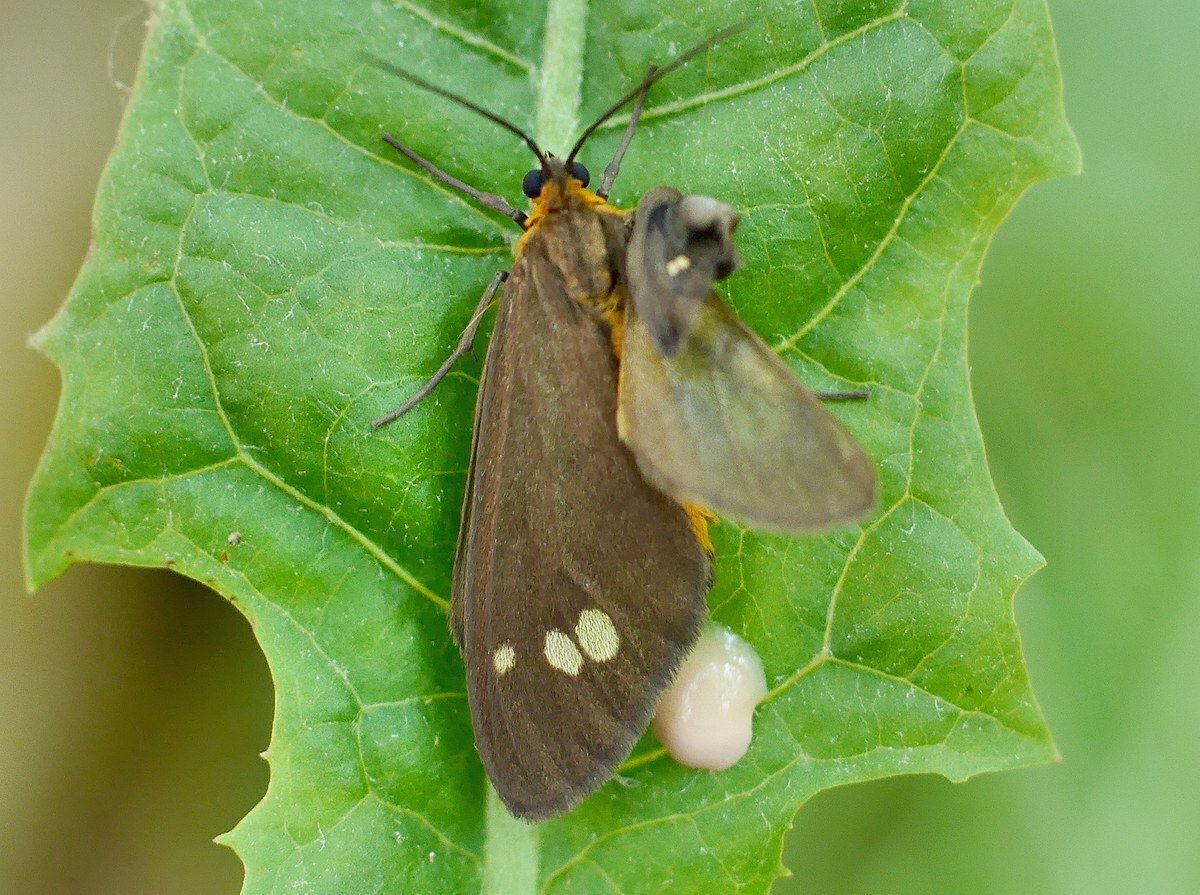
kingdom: Animalia
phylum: Arthropoda
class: Insecta
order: Lepidoptera
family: Erebidae
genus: Dysauxes
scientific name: Dysauxes ancilla
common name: The handmaid
